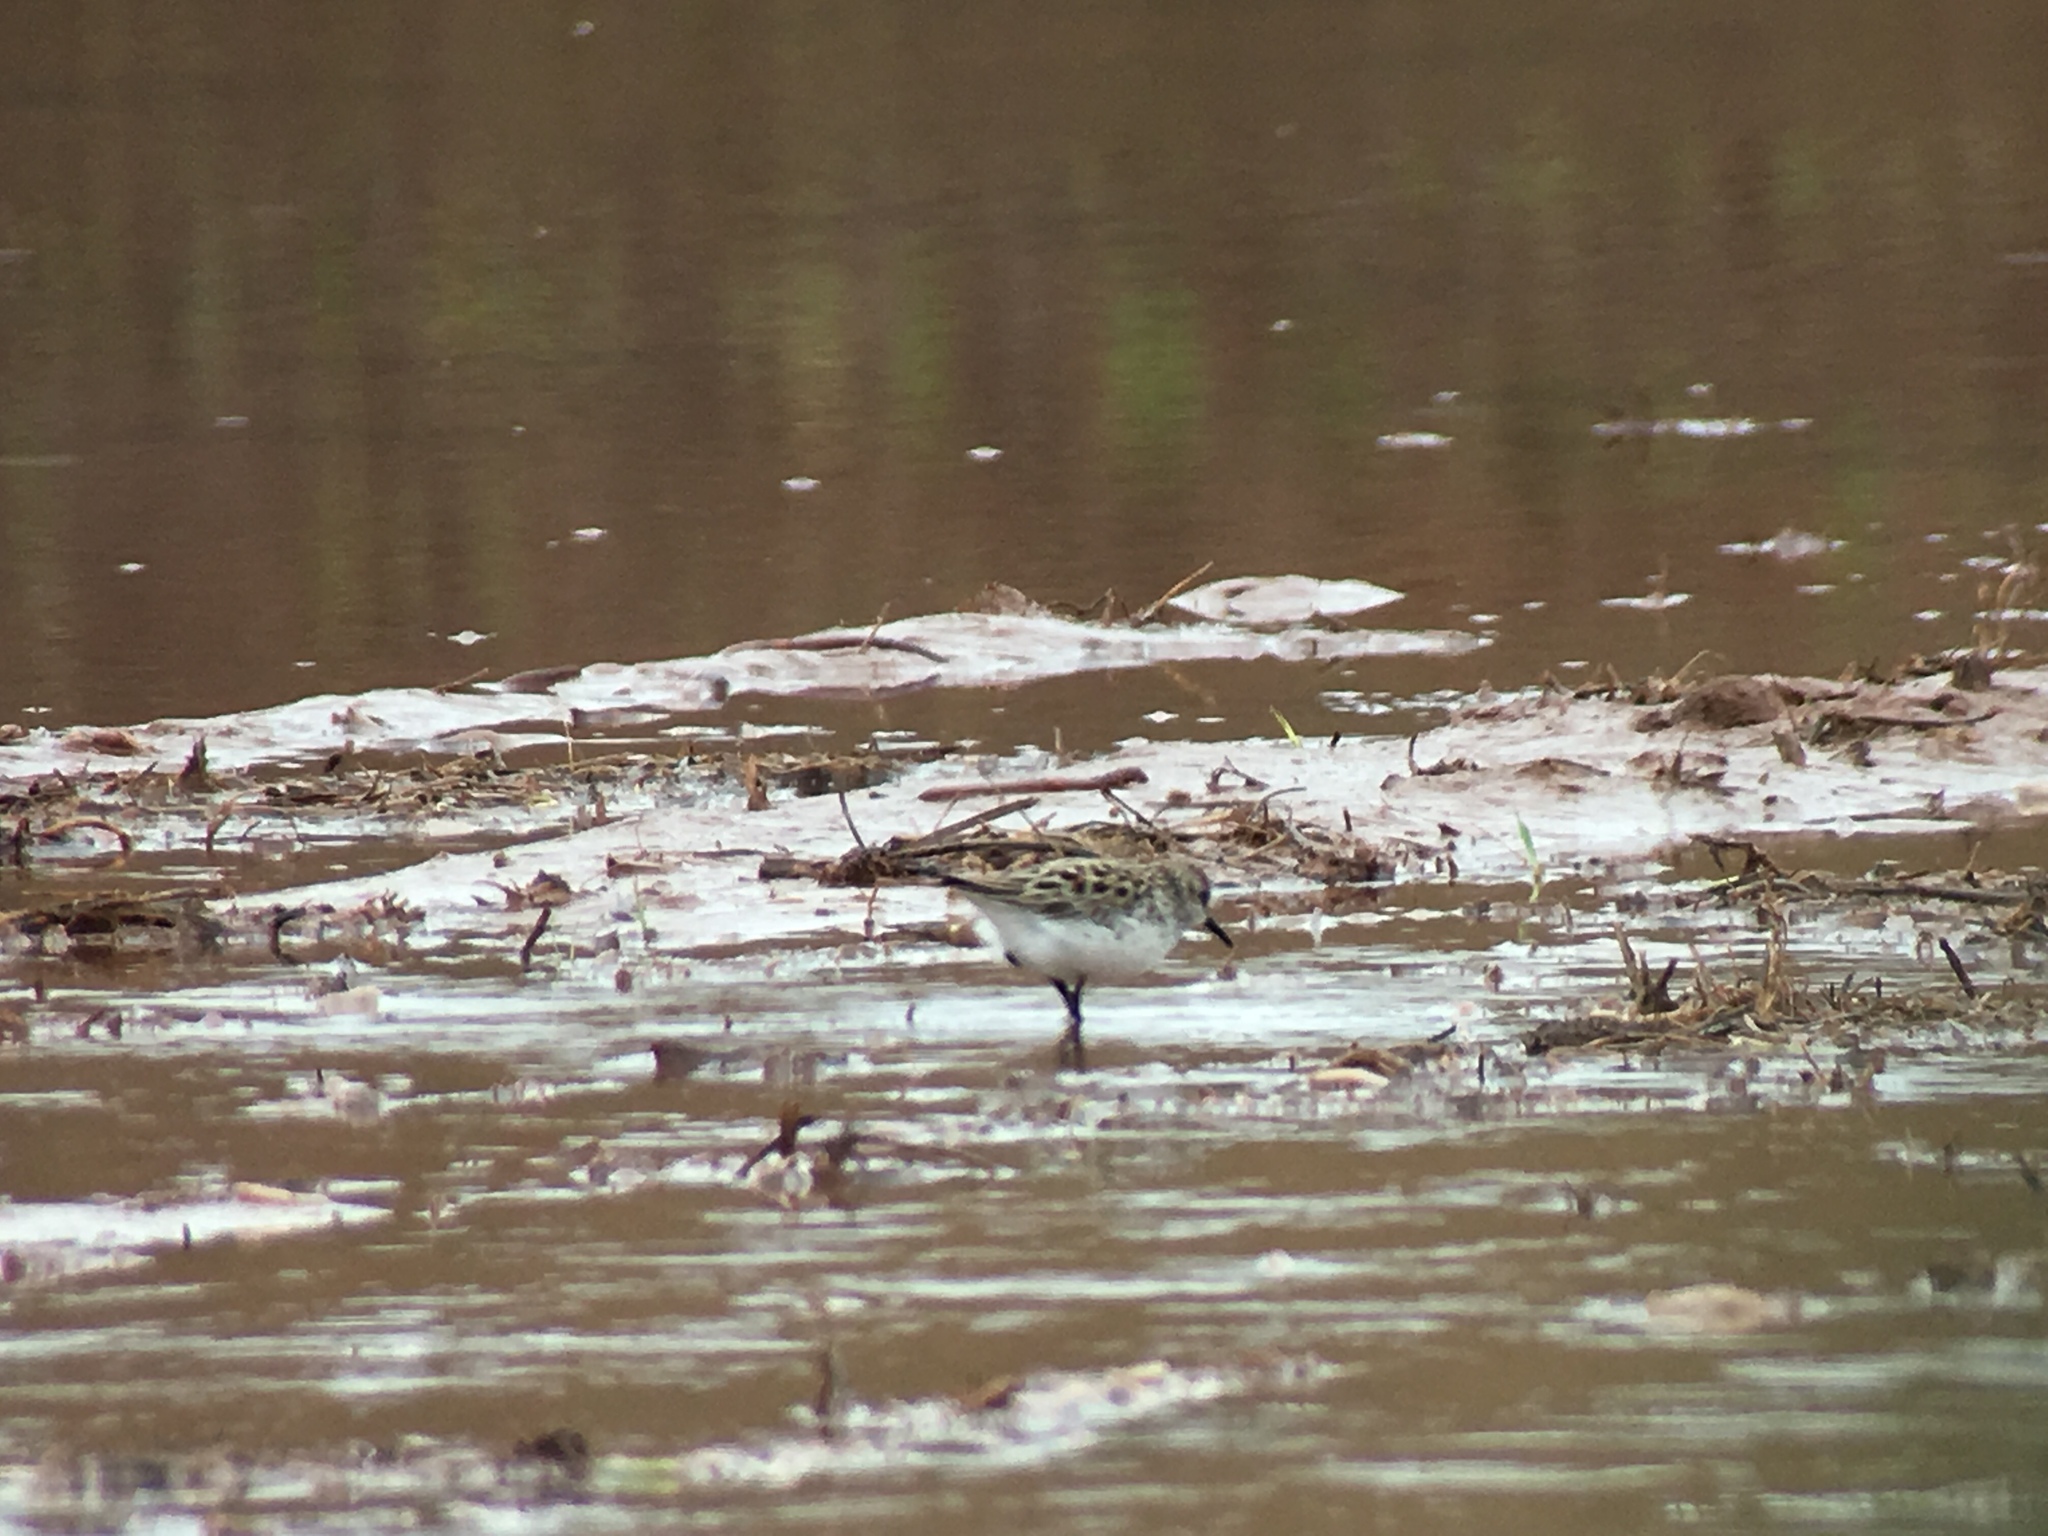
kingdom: Animalia
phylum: Chordata
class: Aves
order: Charadriiformes
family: Scolopacidae
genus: Calidris
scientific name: Calidris pusilla
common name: Semipalmated sandpiper
